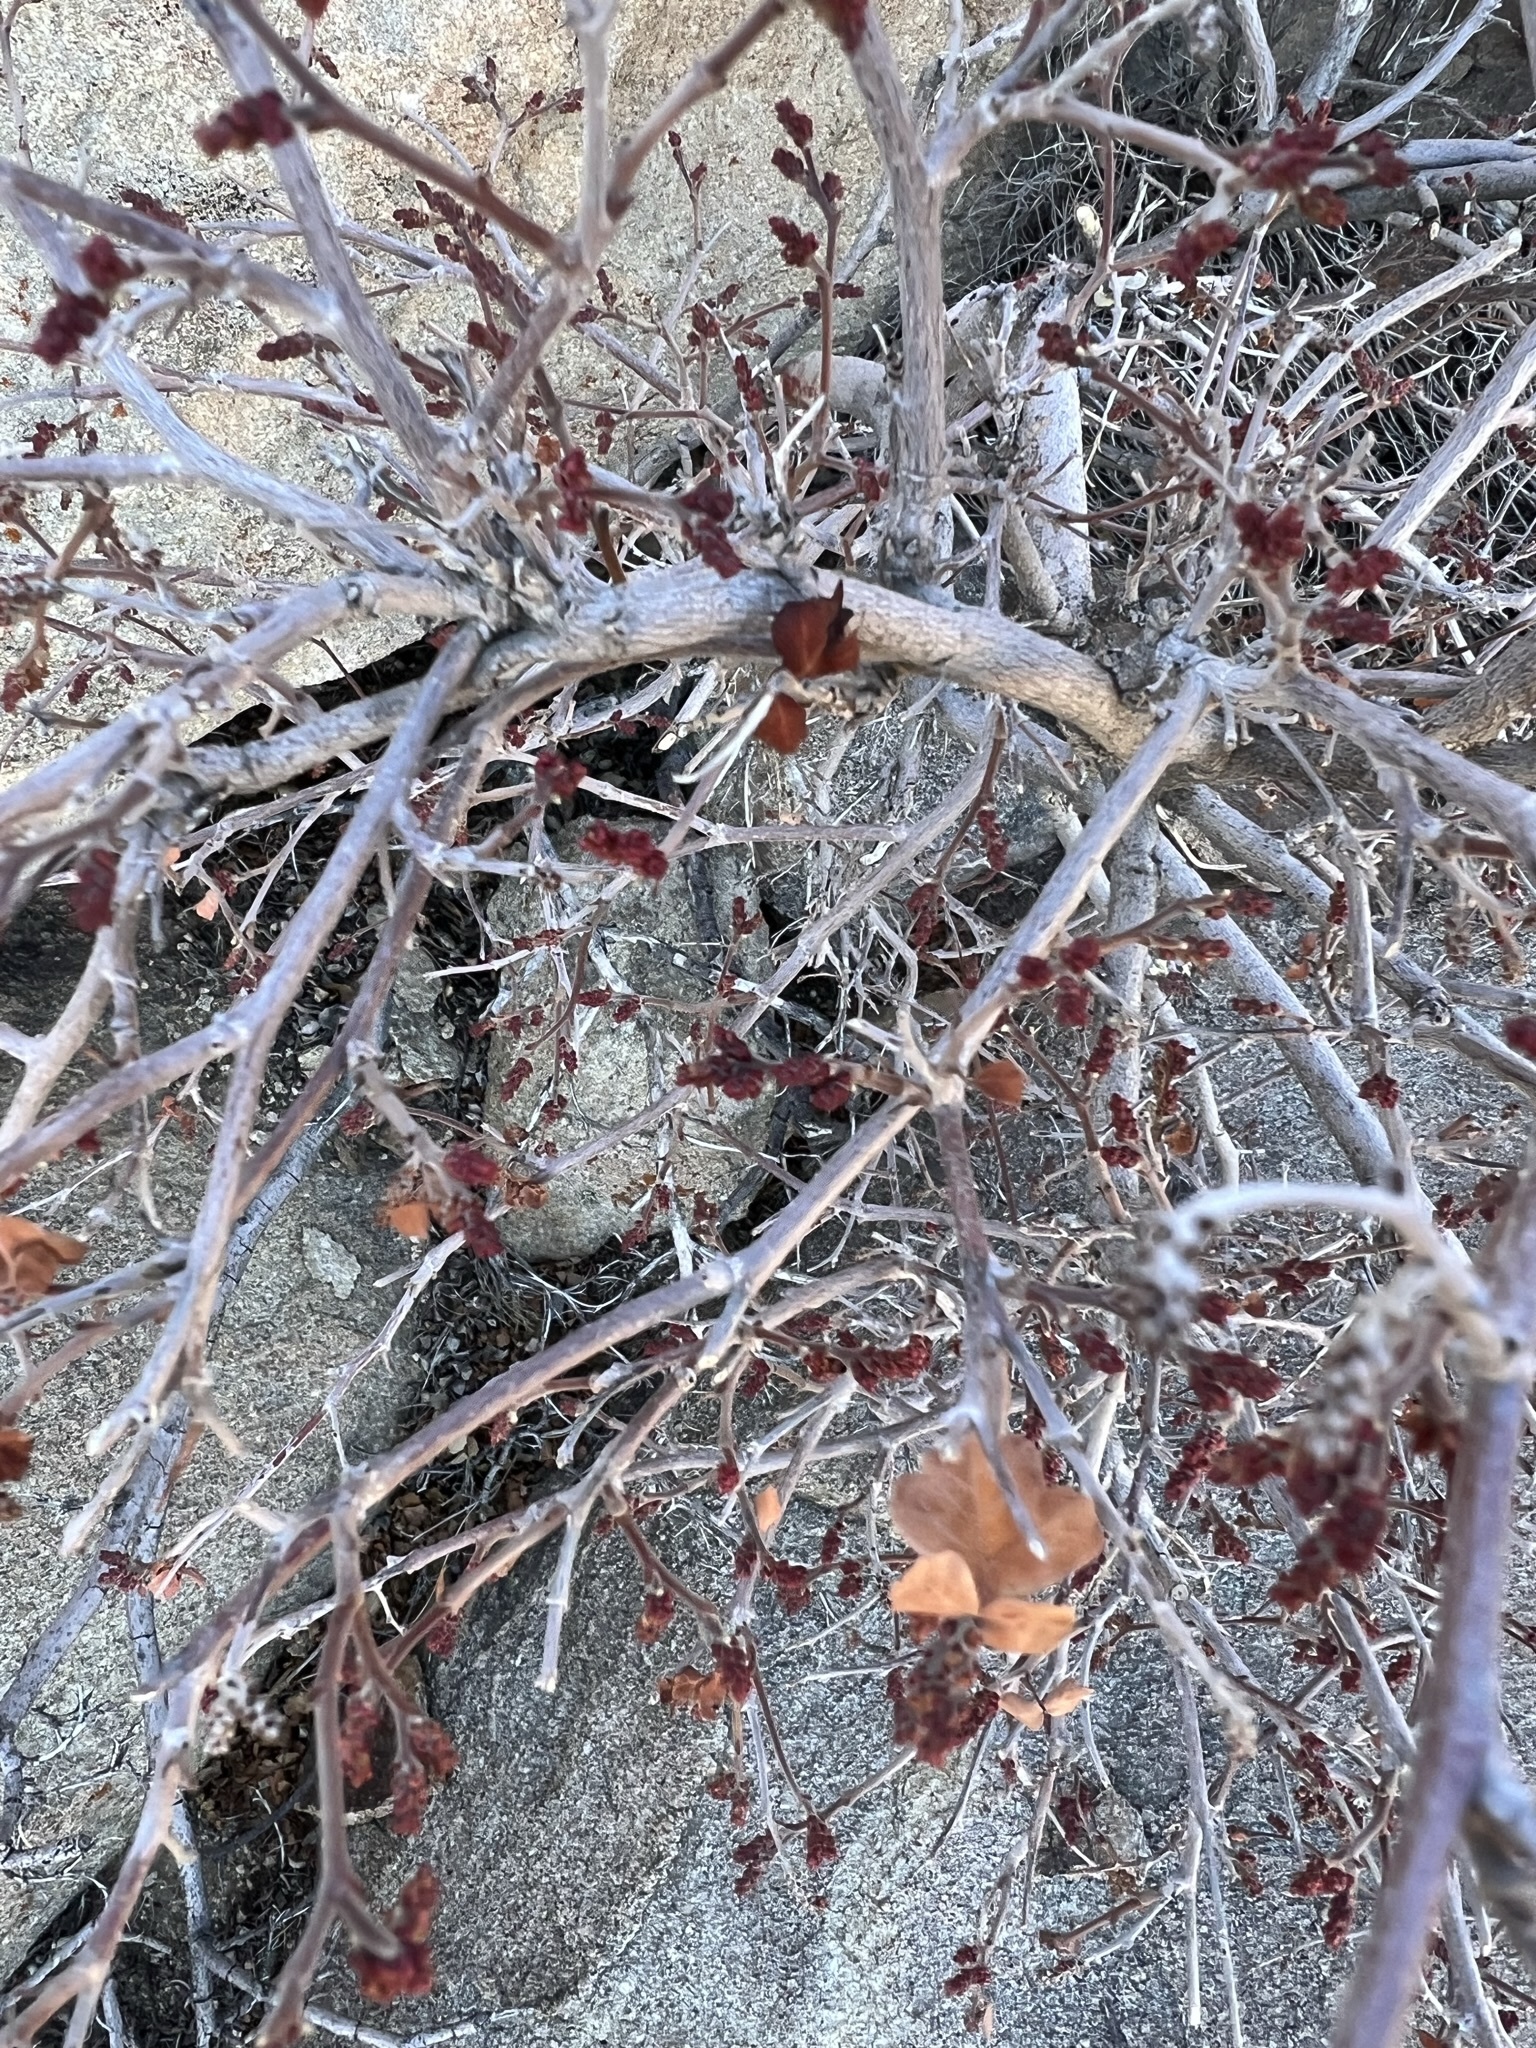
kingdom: Plantae
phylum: Tracheophyta
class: Magnoliopsida
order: Sapindales
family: Anacardiaceae
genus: Rhus
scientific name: Rhus aromatica
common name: Aromatic sumac
